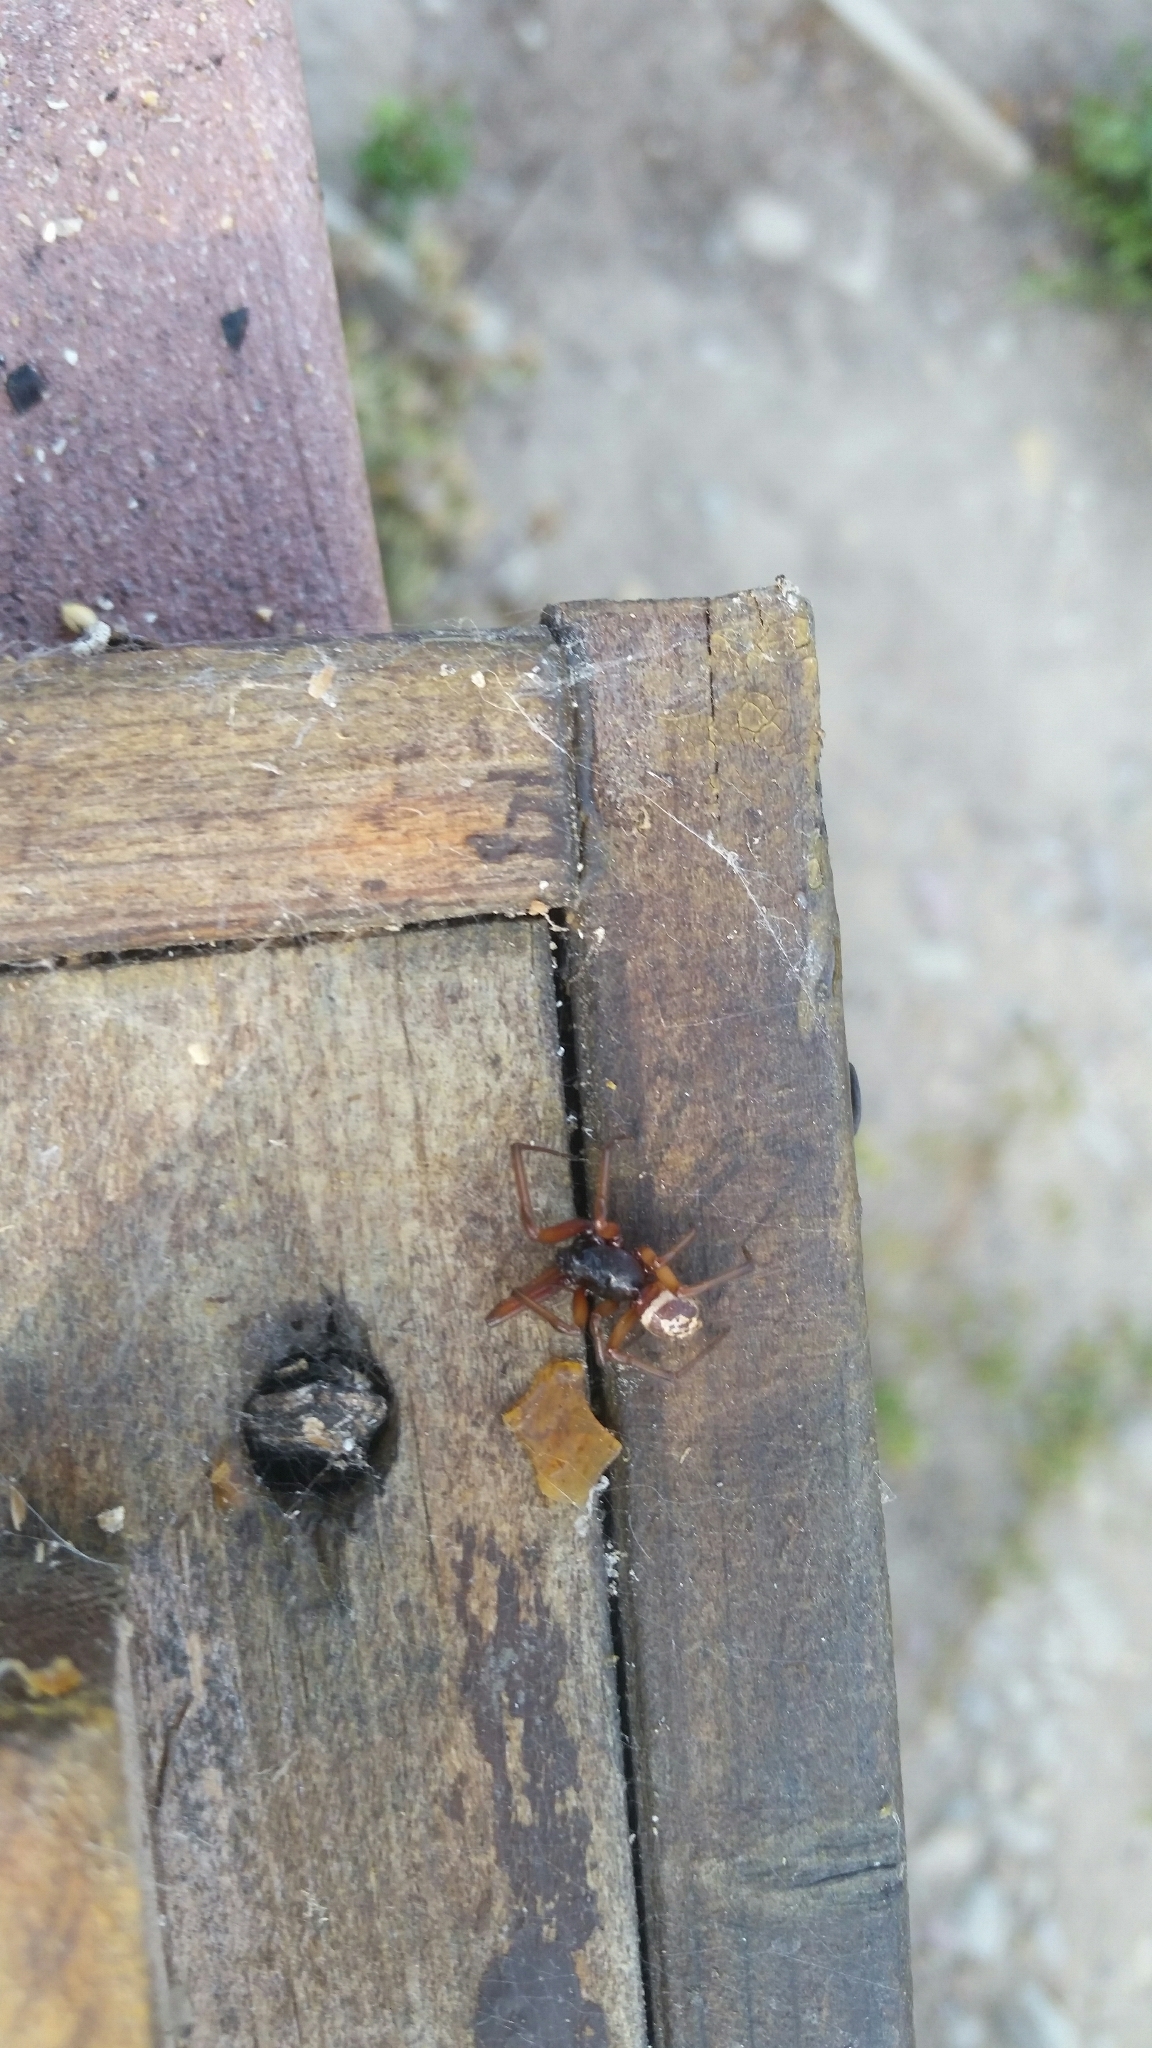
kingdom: Animalia
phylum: Arthropoda
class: Arachnida
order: Araneae
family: Theridiidae
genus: Steatoda
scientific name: Steatoda nobilis
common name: Cobweb weaver
